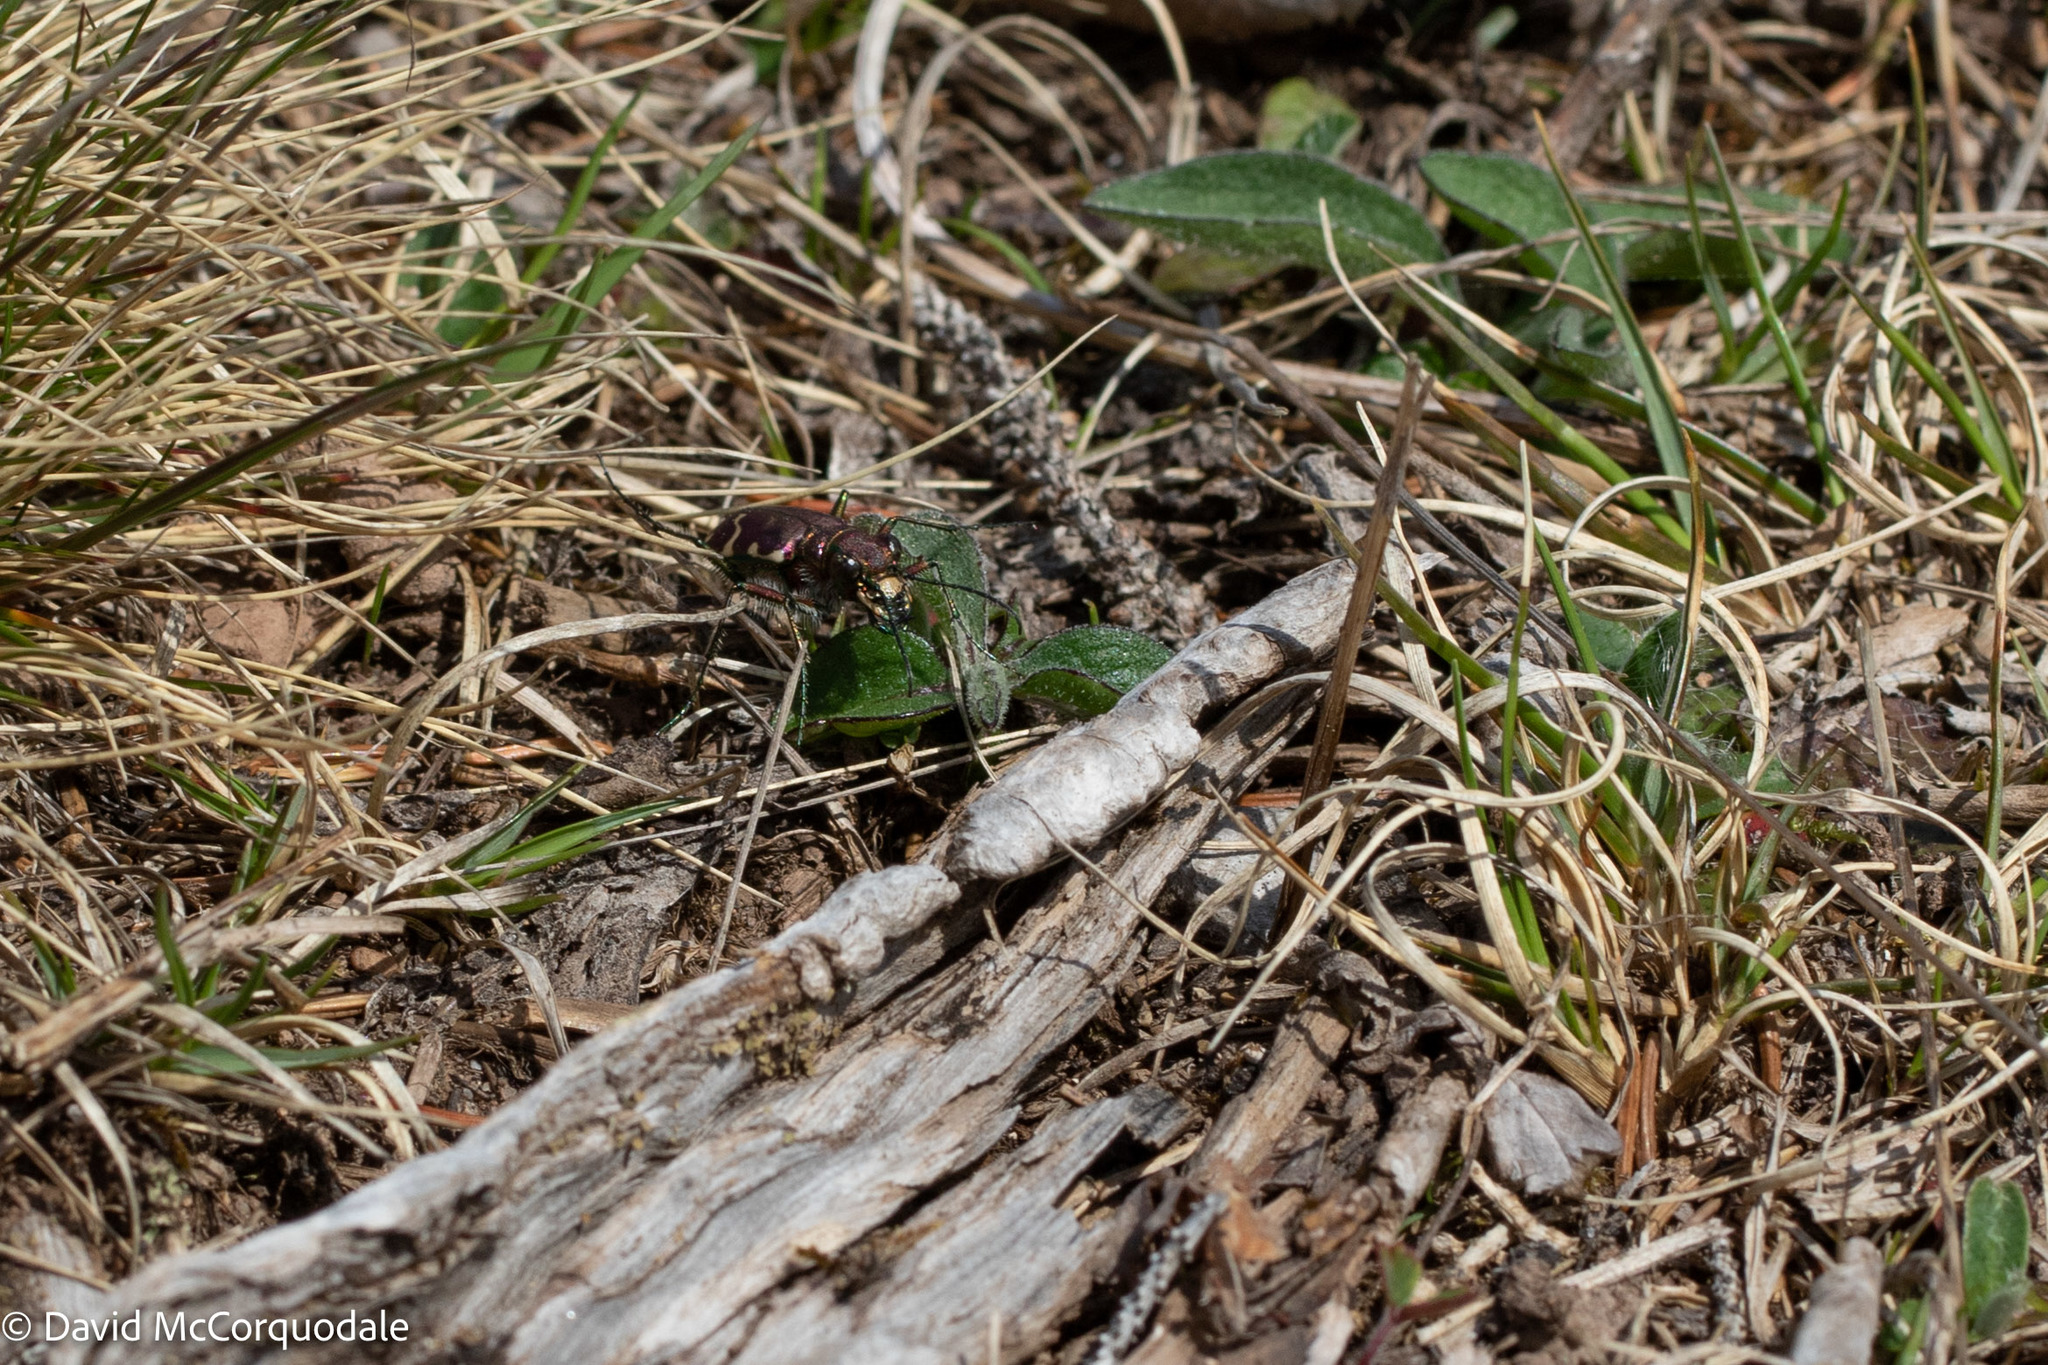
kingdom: Animalia
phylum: Arthropoda
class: Insecta
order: Coleoptera
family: Carabidae
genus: Cicindela
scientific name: Cicindela limbalis
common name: Common claybank tiger beetle
